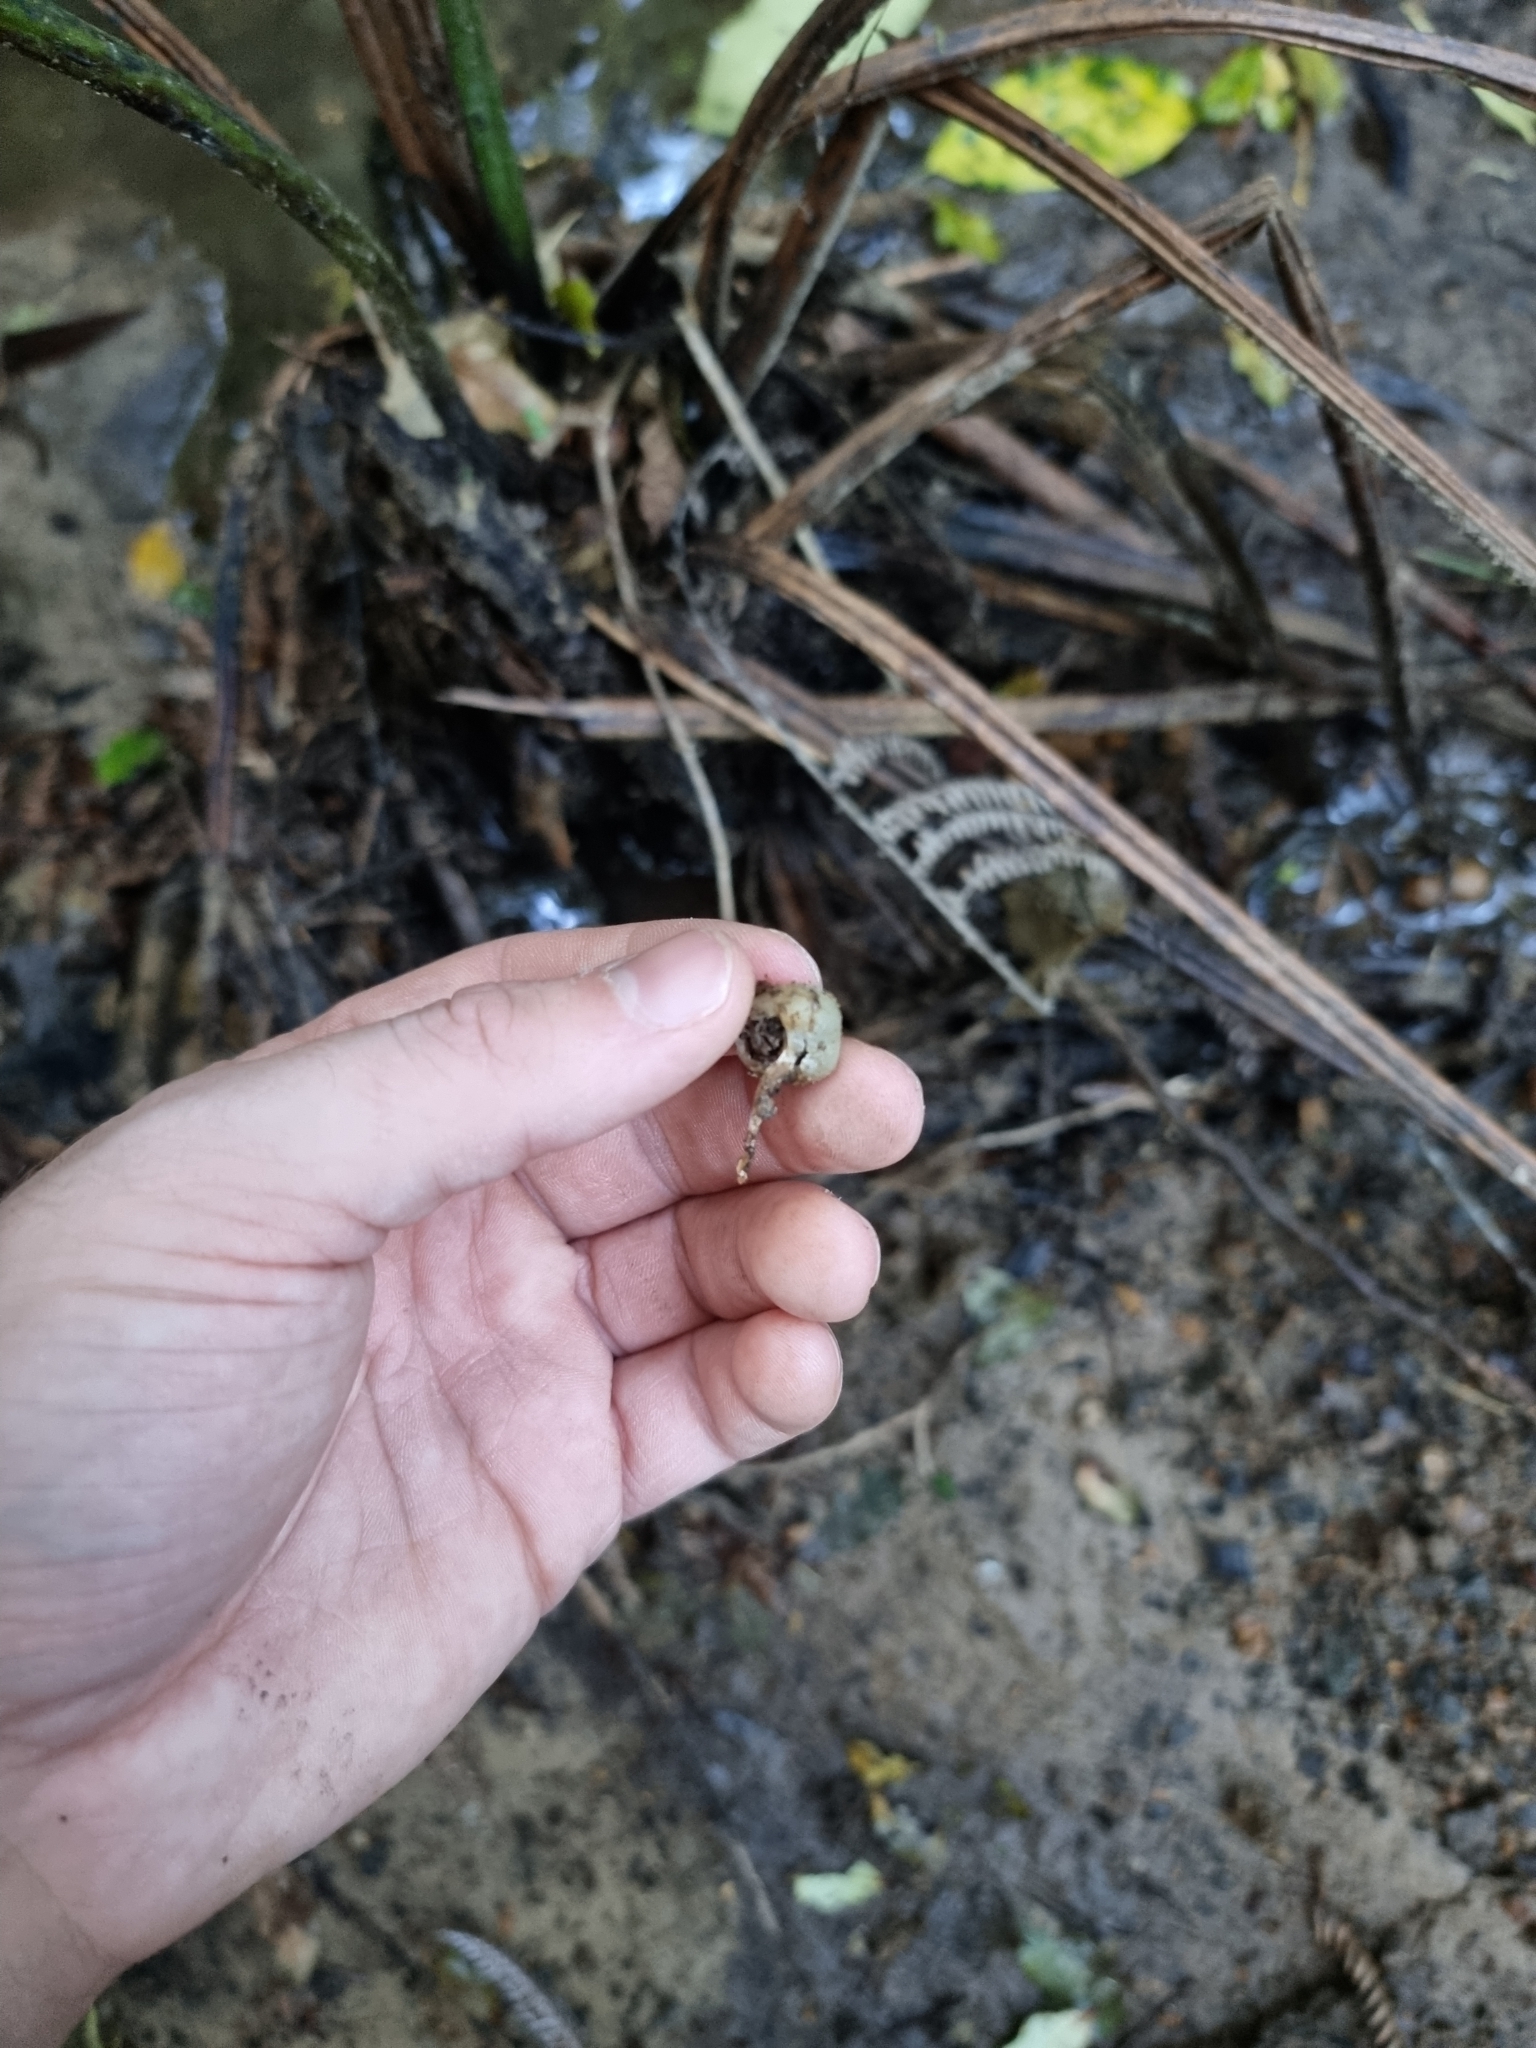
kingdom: Fungi
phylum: Basidiomycota
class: Agaricomycetes
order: Agaricales
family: Hymenogastraceae
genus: Psilocybe
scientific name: Psilocybe weraroa
